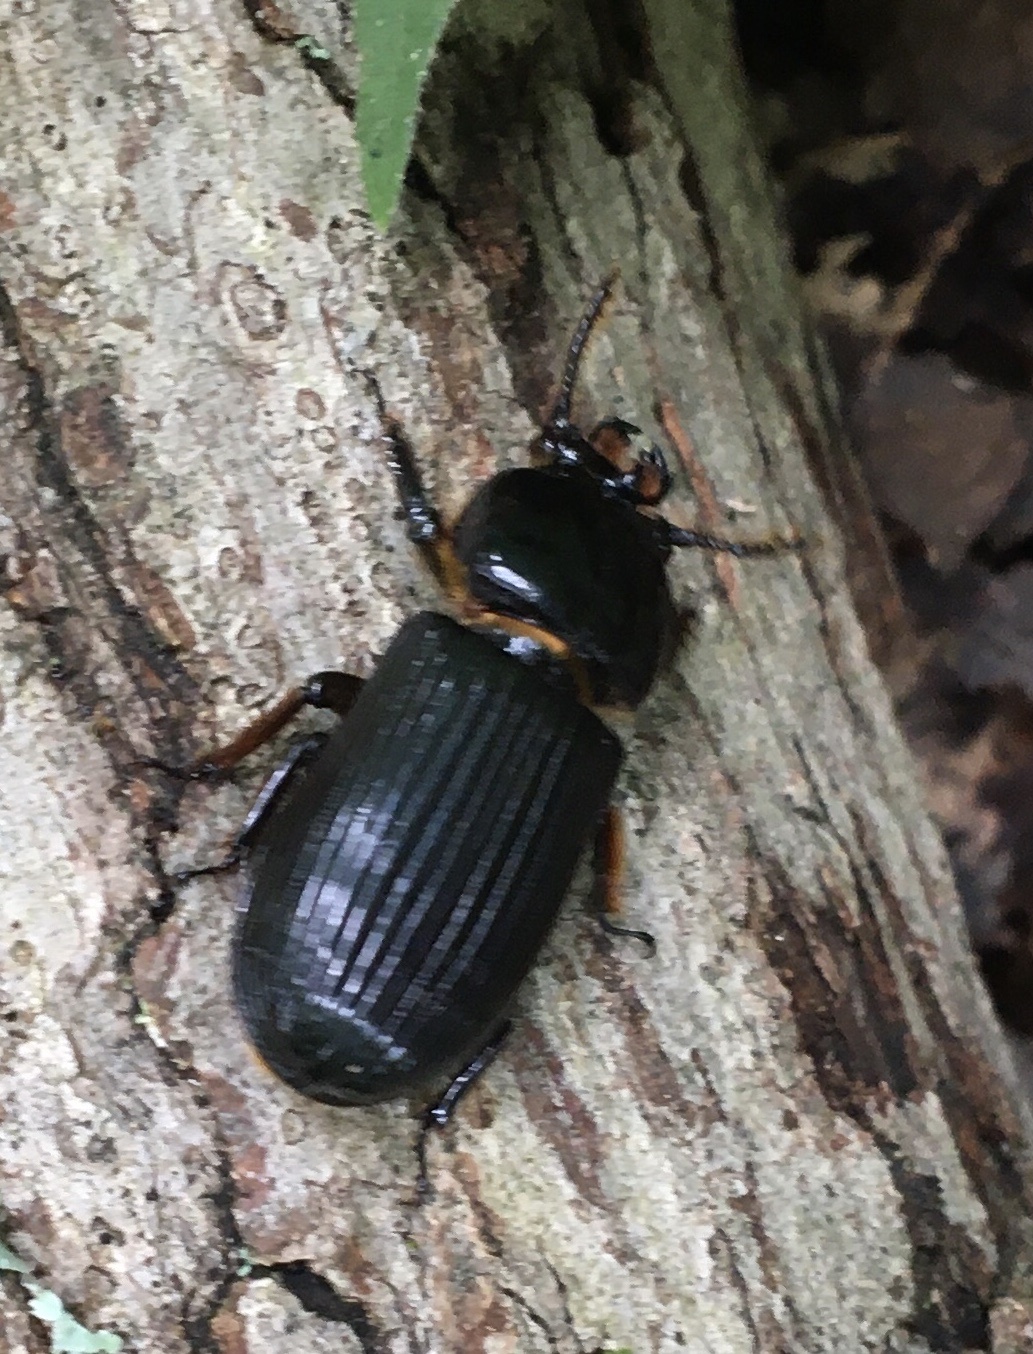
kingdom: Animalia
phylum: Arthropoda
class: Insecta
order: Coleoptera
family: Passalidae
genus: Odontotaenius
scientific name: Odontotaenius disjunctus
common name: Patent leather beetle
